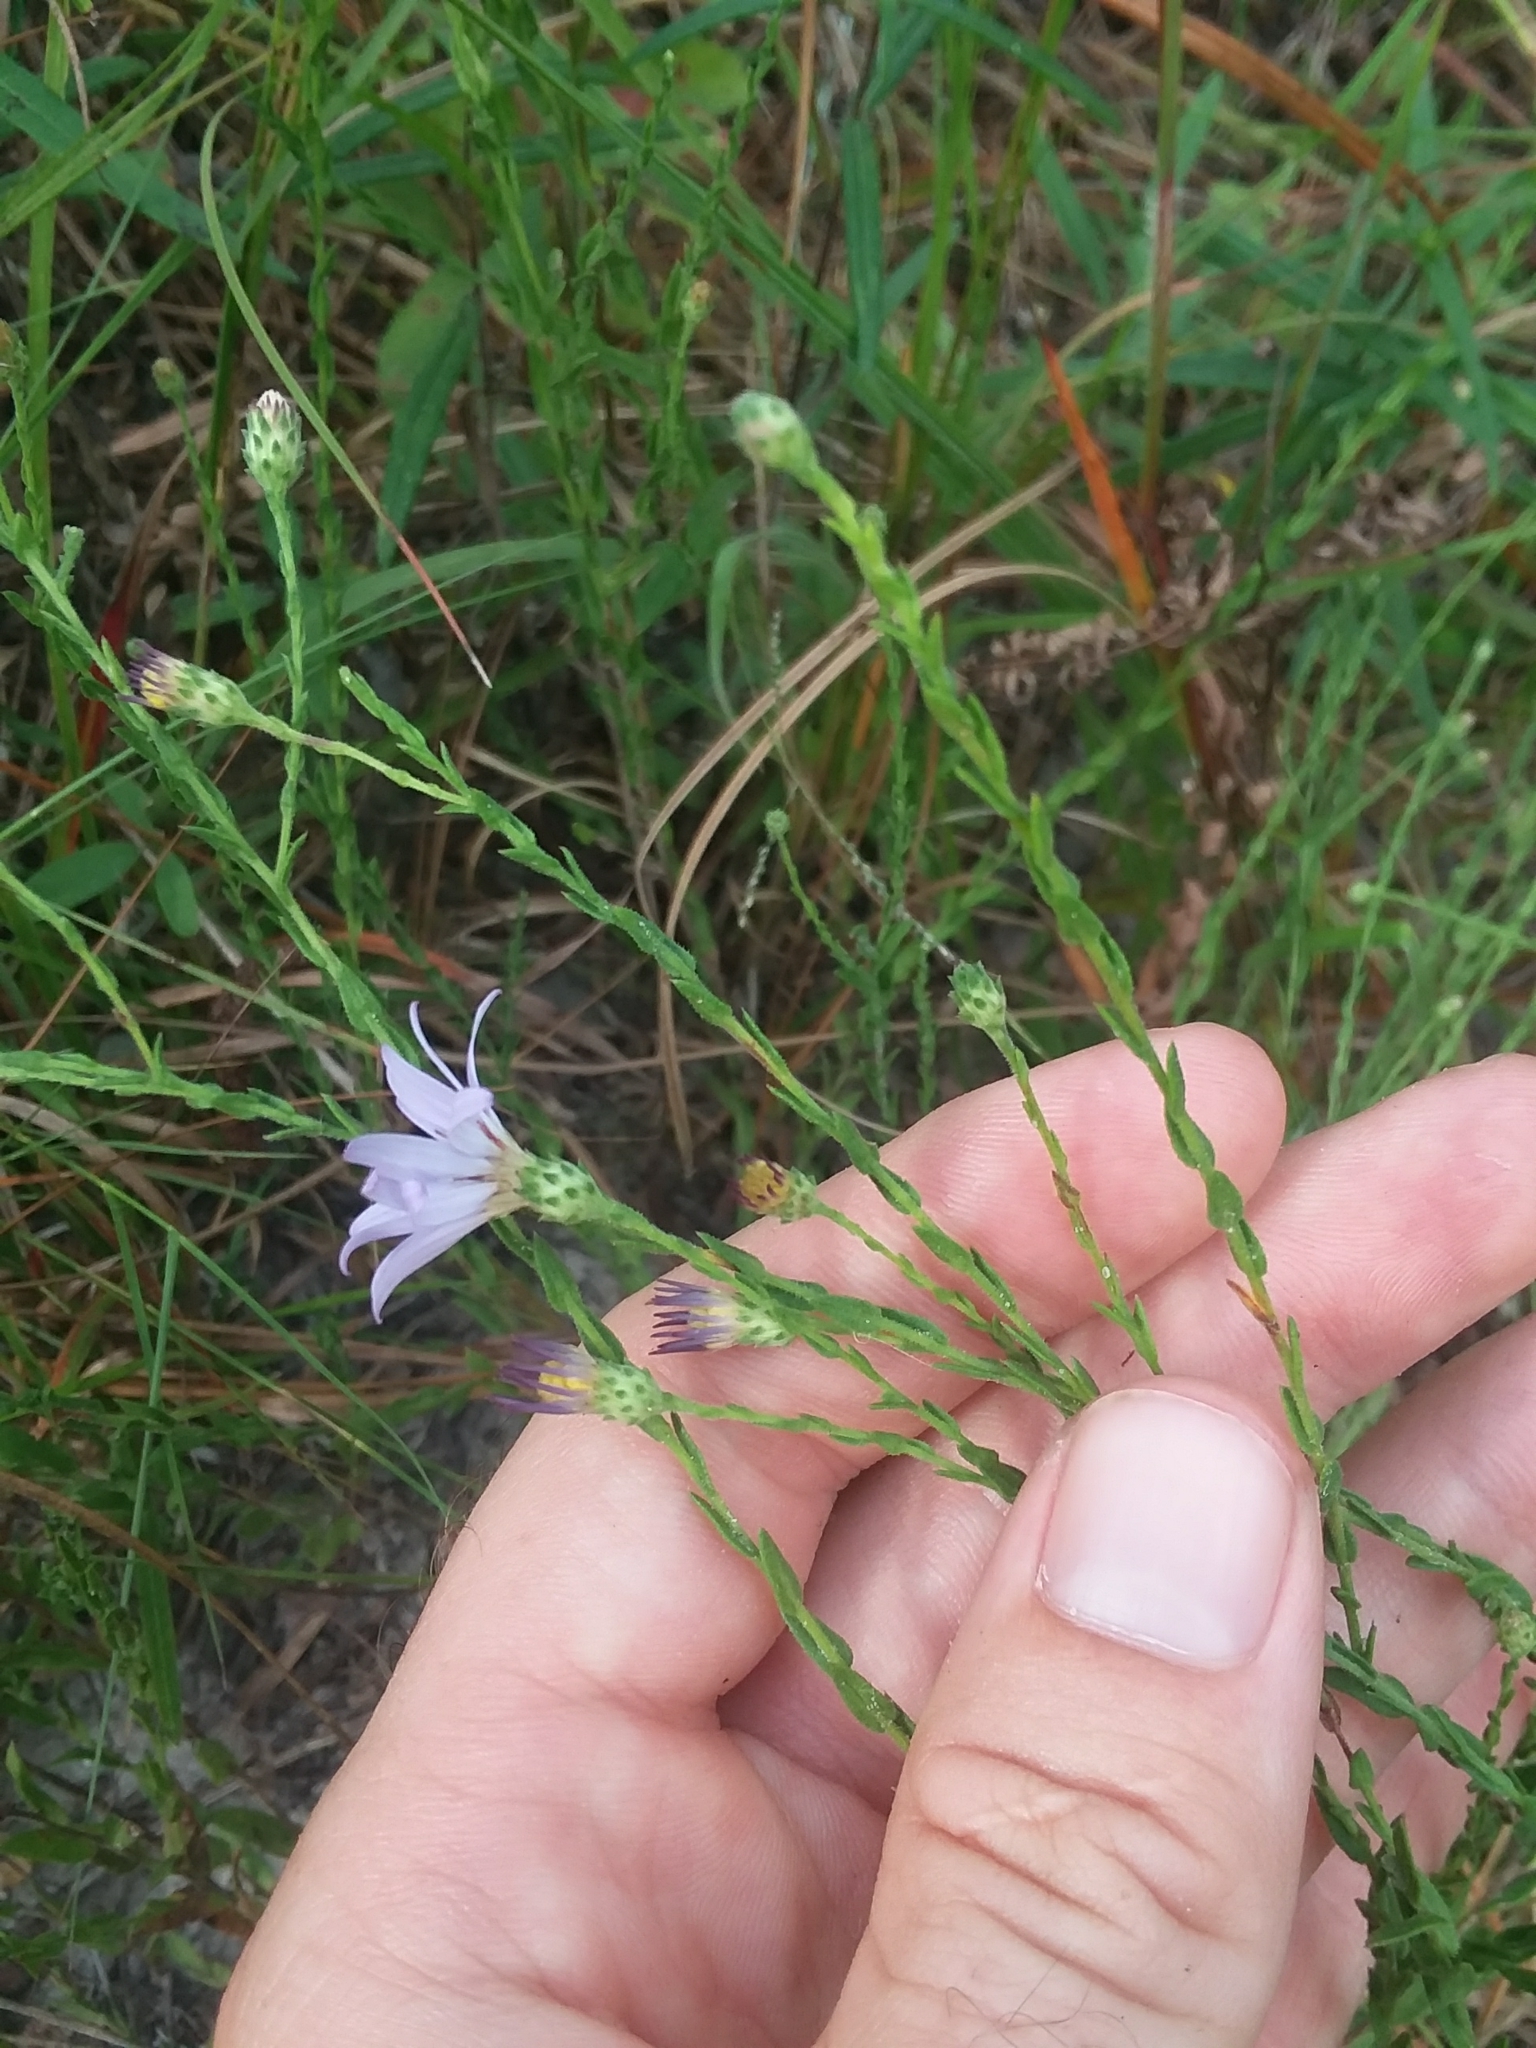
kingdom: Plantae
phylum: Tracheophyta
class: Magnoliopsida
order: Asterales
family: Asteraceae
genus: Symphyotrichum
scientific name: Symphyotrichum adnatum
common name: Scale-leaf aster
